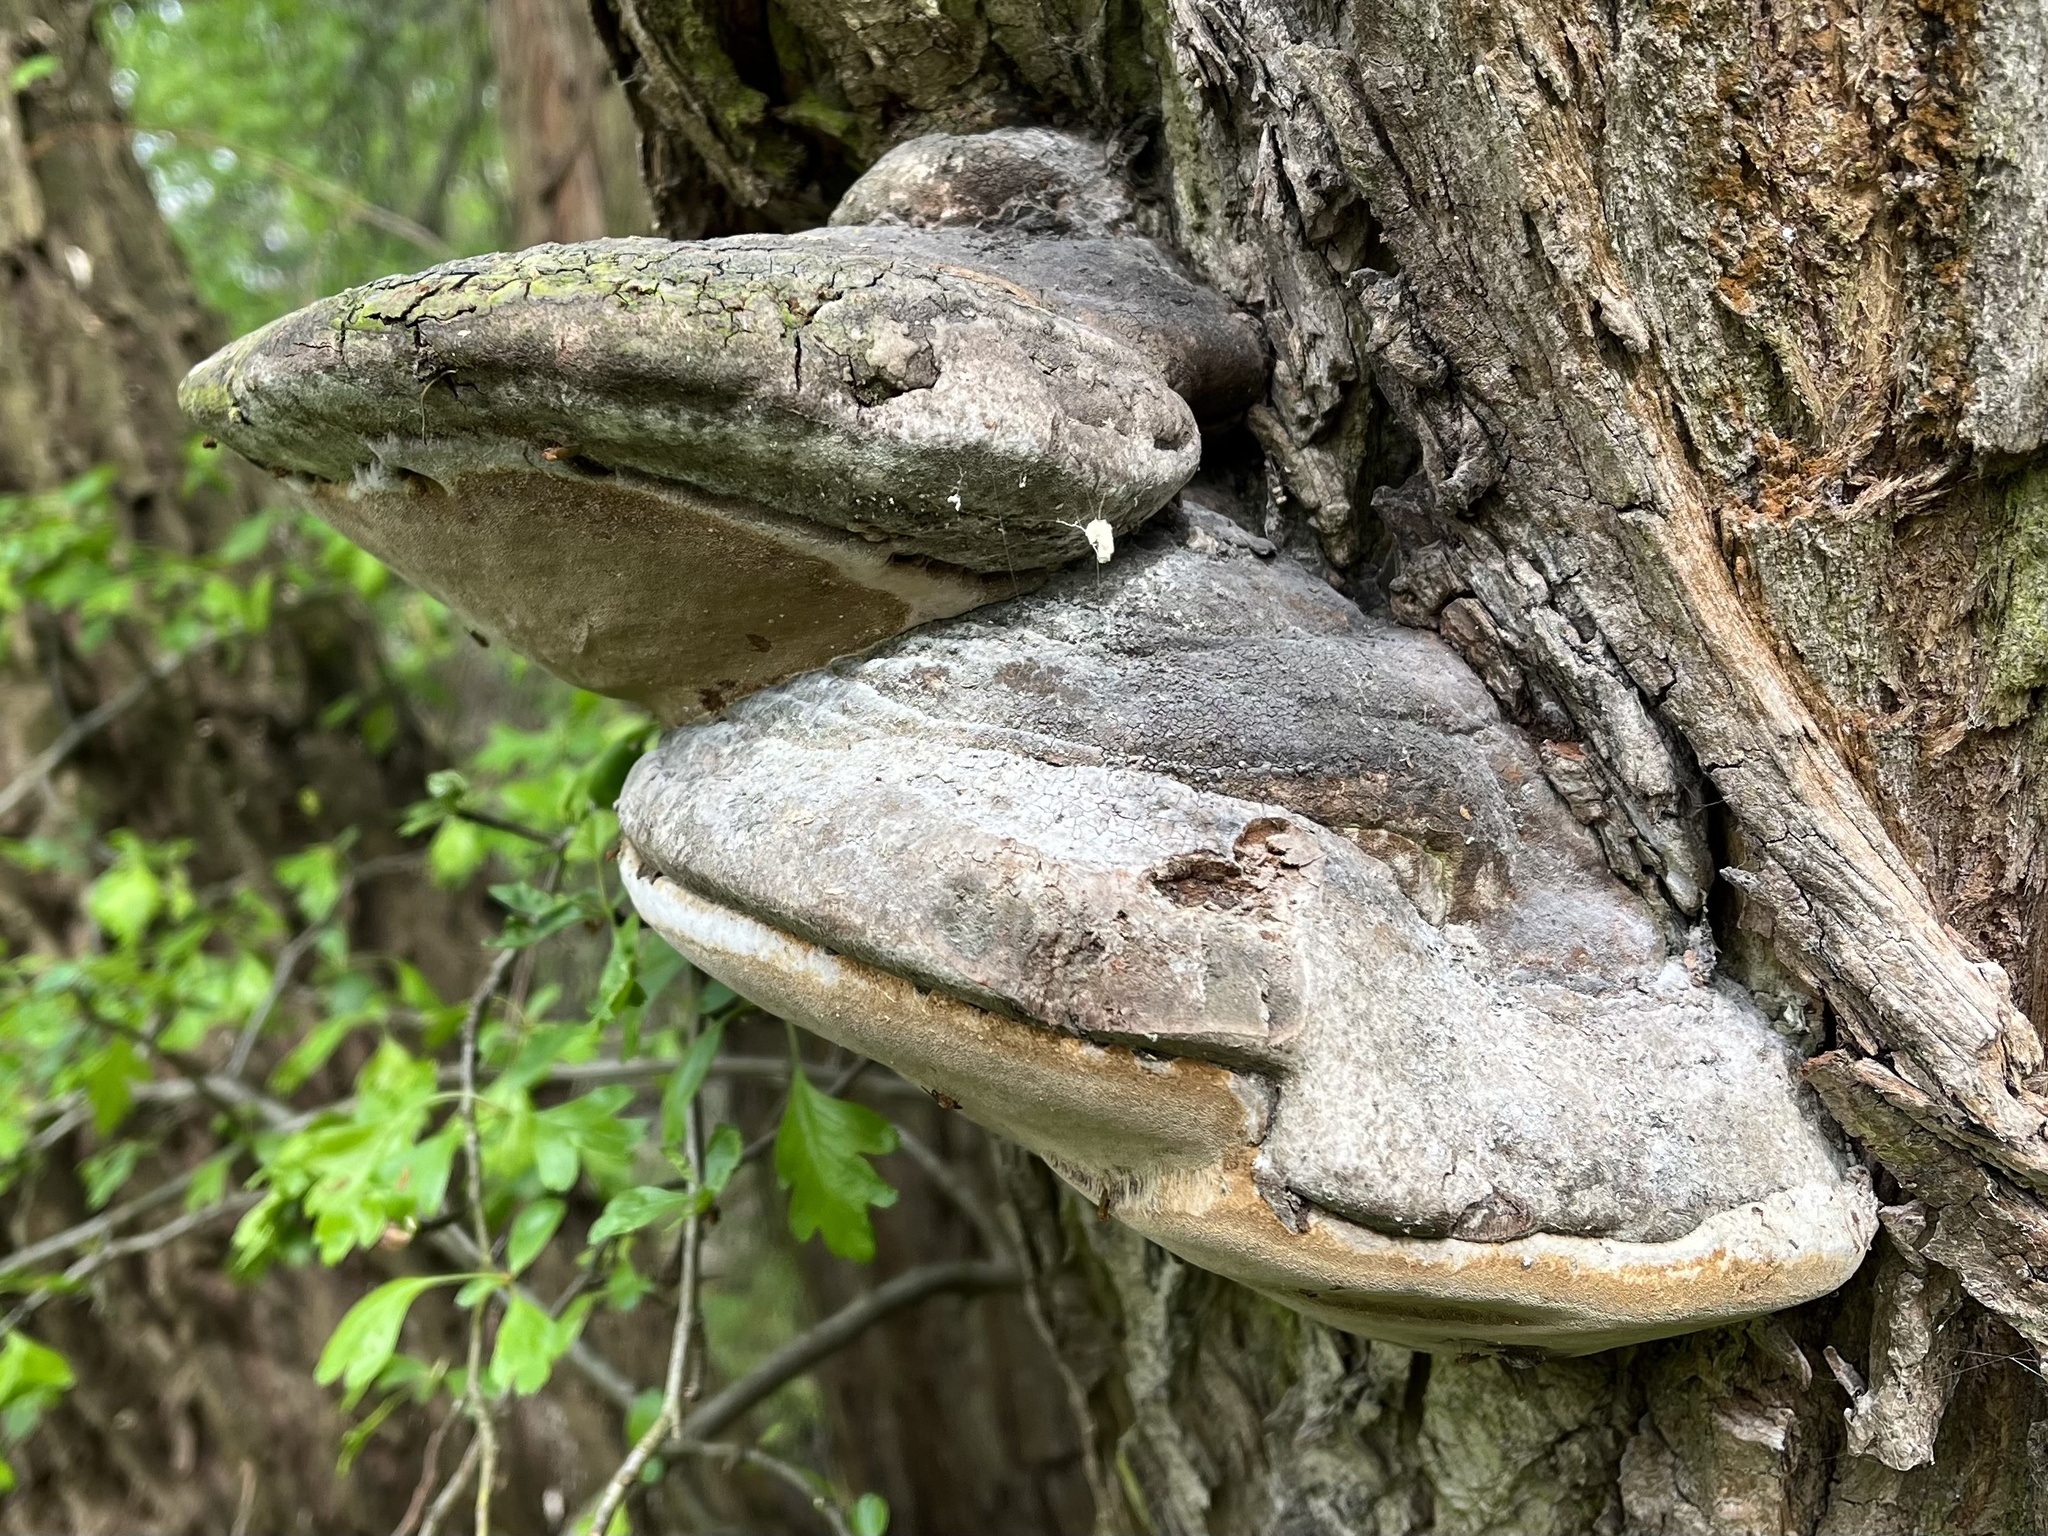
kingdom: Fungi
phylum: Basidiomycota
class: Agaricomycetes
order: Hymenochaetales
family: Hymenochaetaceae
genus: Phellinus
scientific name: Phellinus igniarius
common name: Willow bracket
